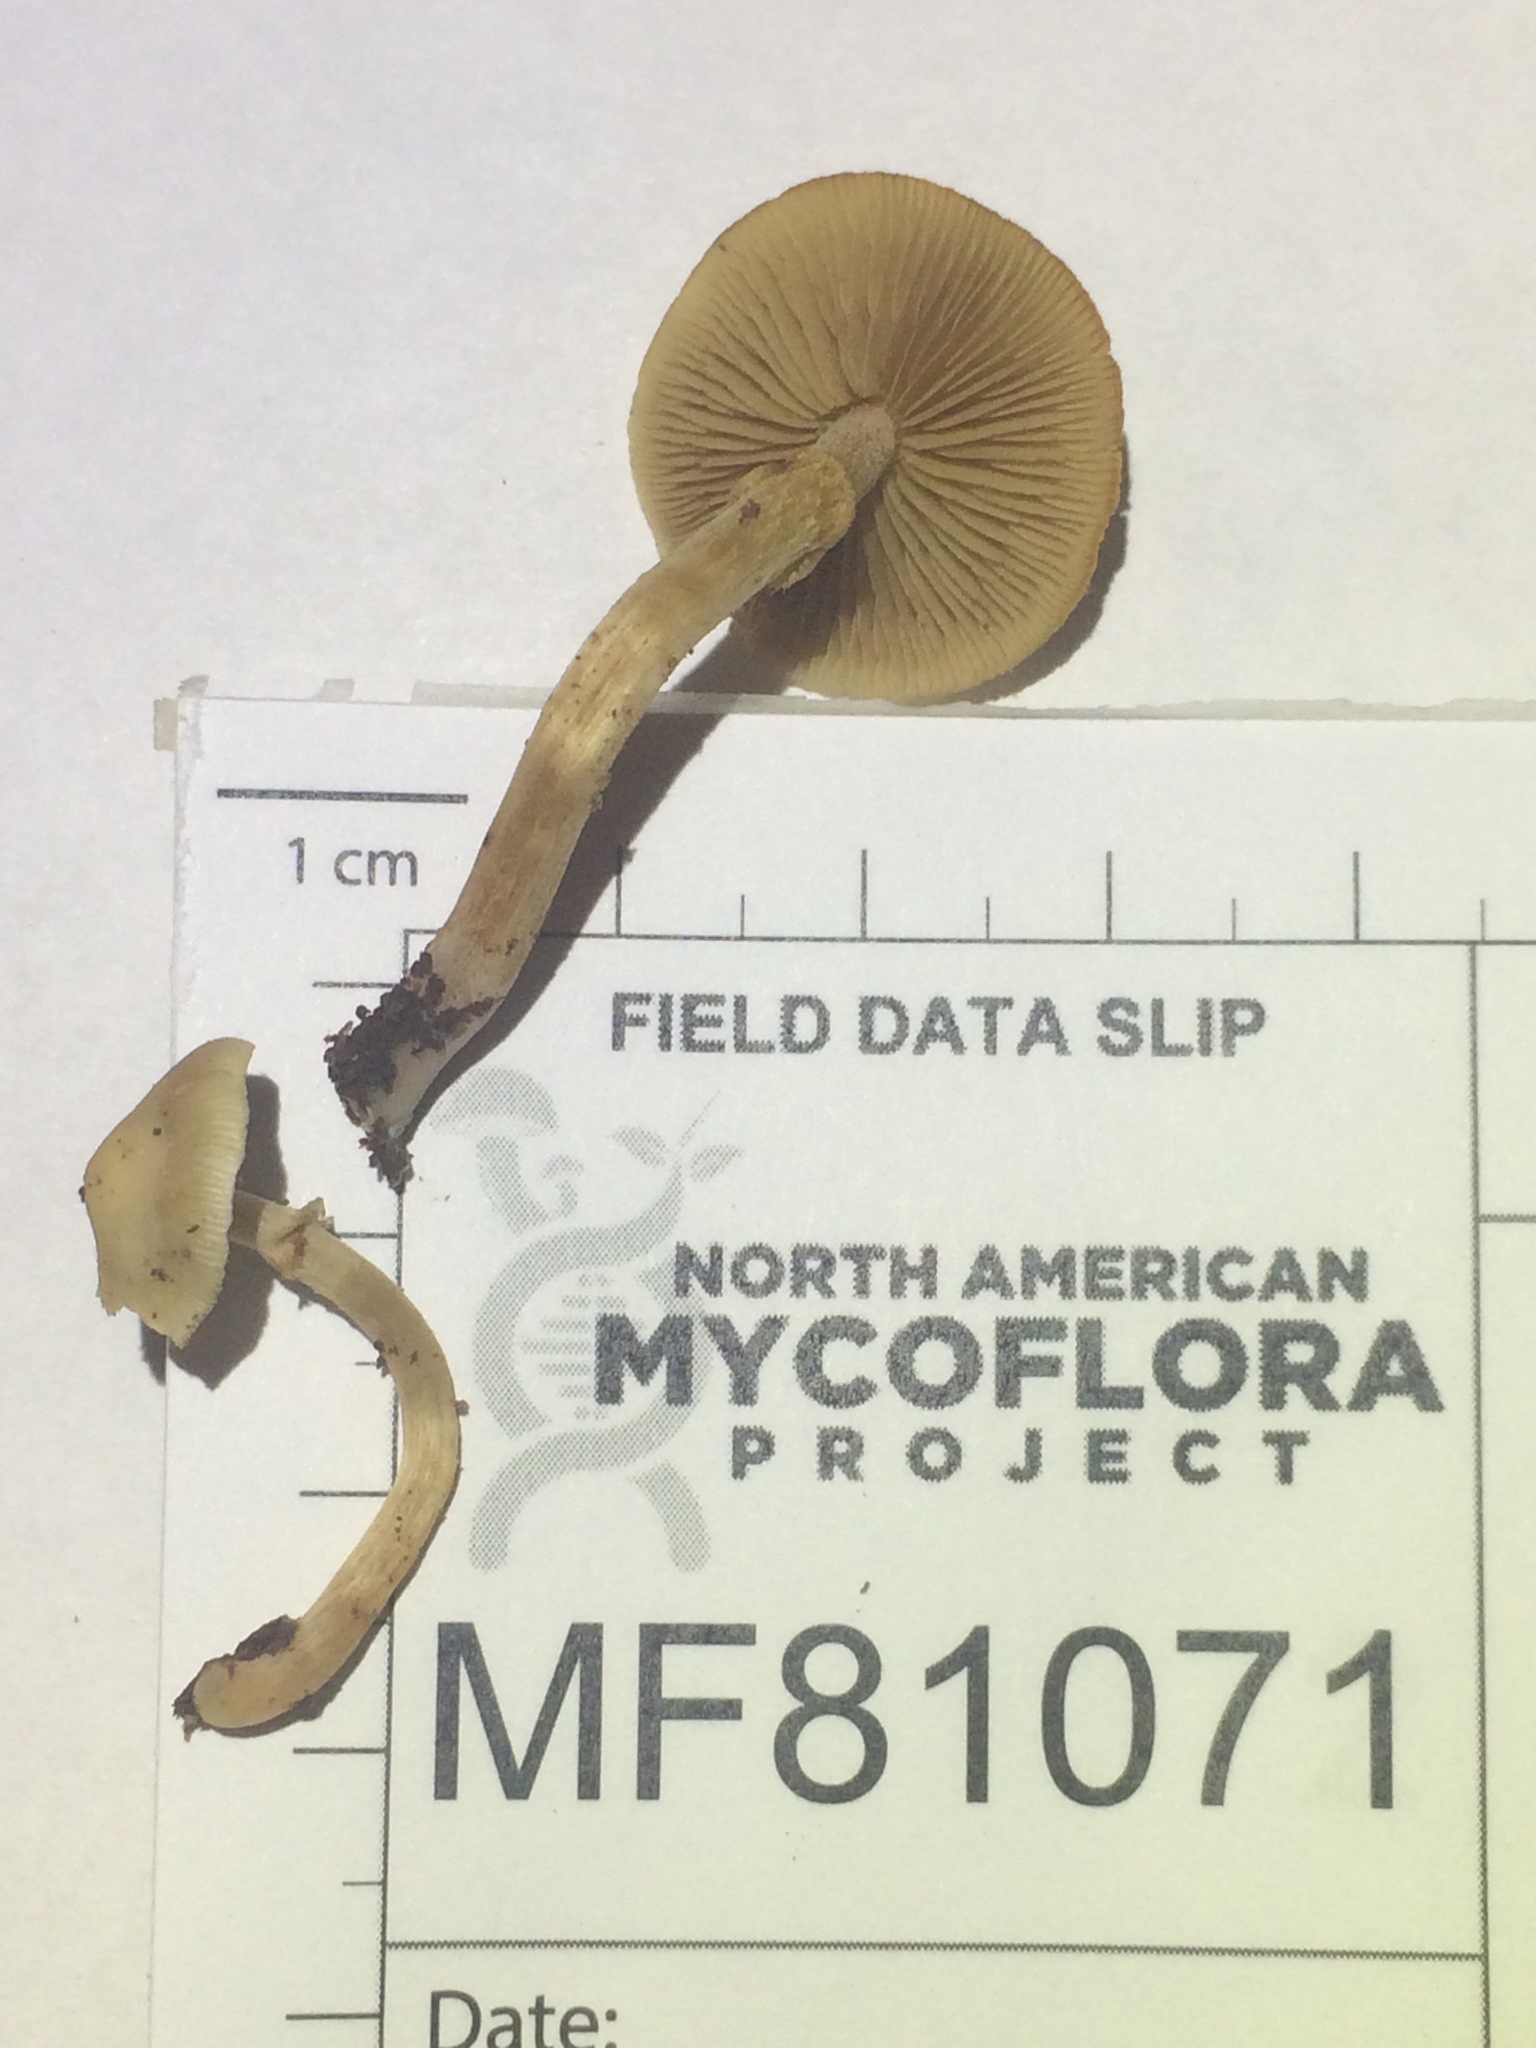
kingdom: Fungi
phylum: Basidiomycota
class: Agaricomycetes
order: Agaricales
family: Strophariaceae
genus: Kuehneromyces
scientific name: Kuehneromyces marginellus
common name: Sheathed woodtuft
